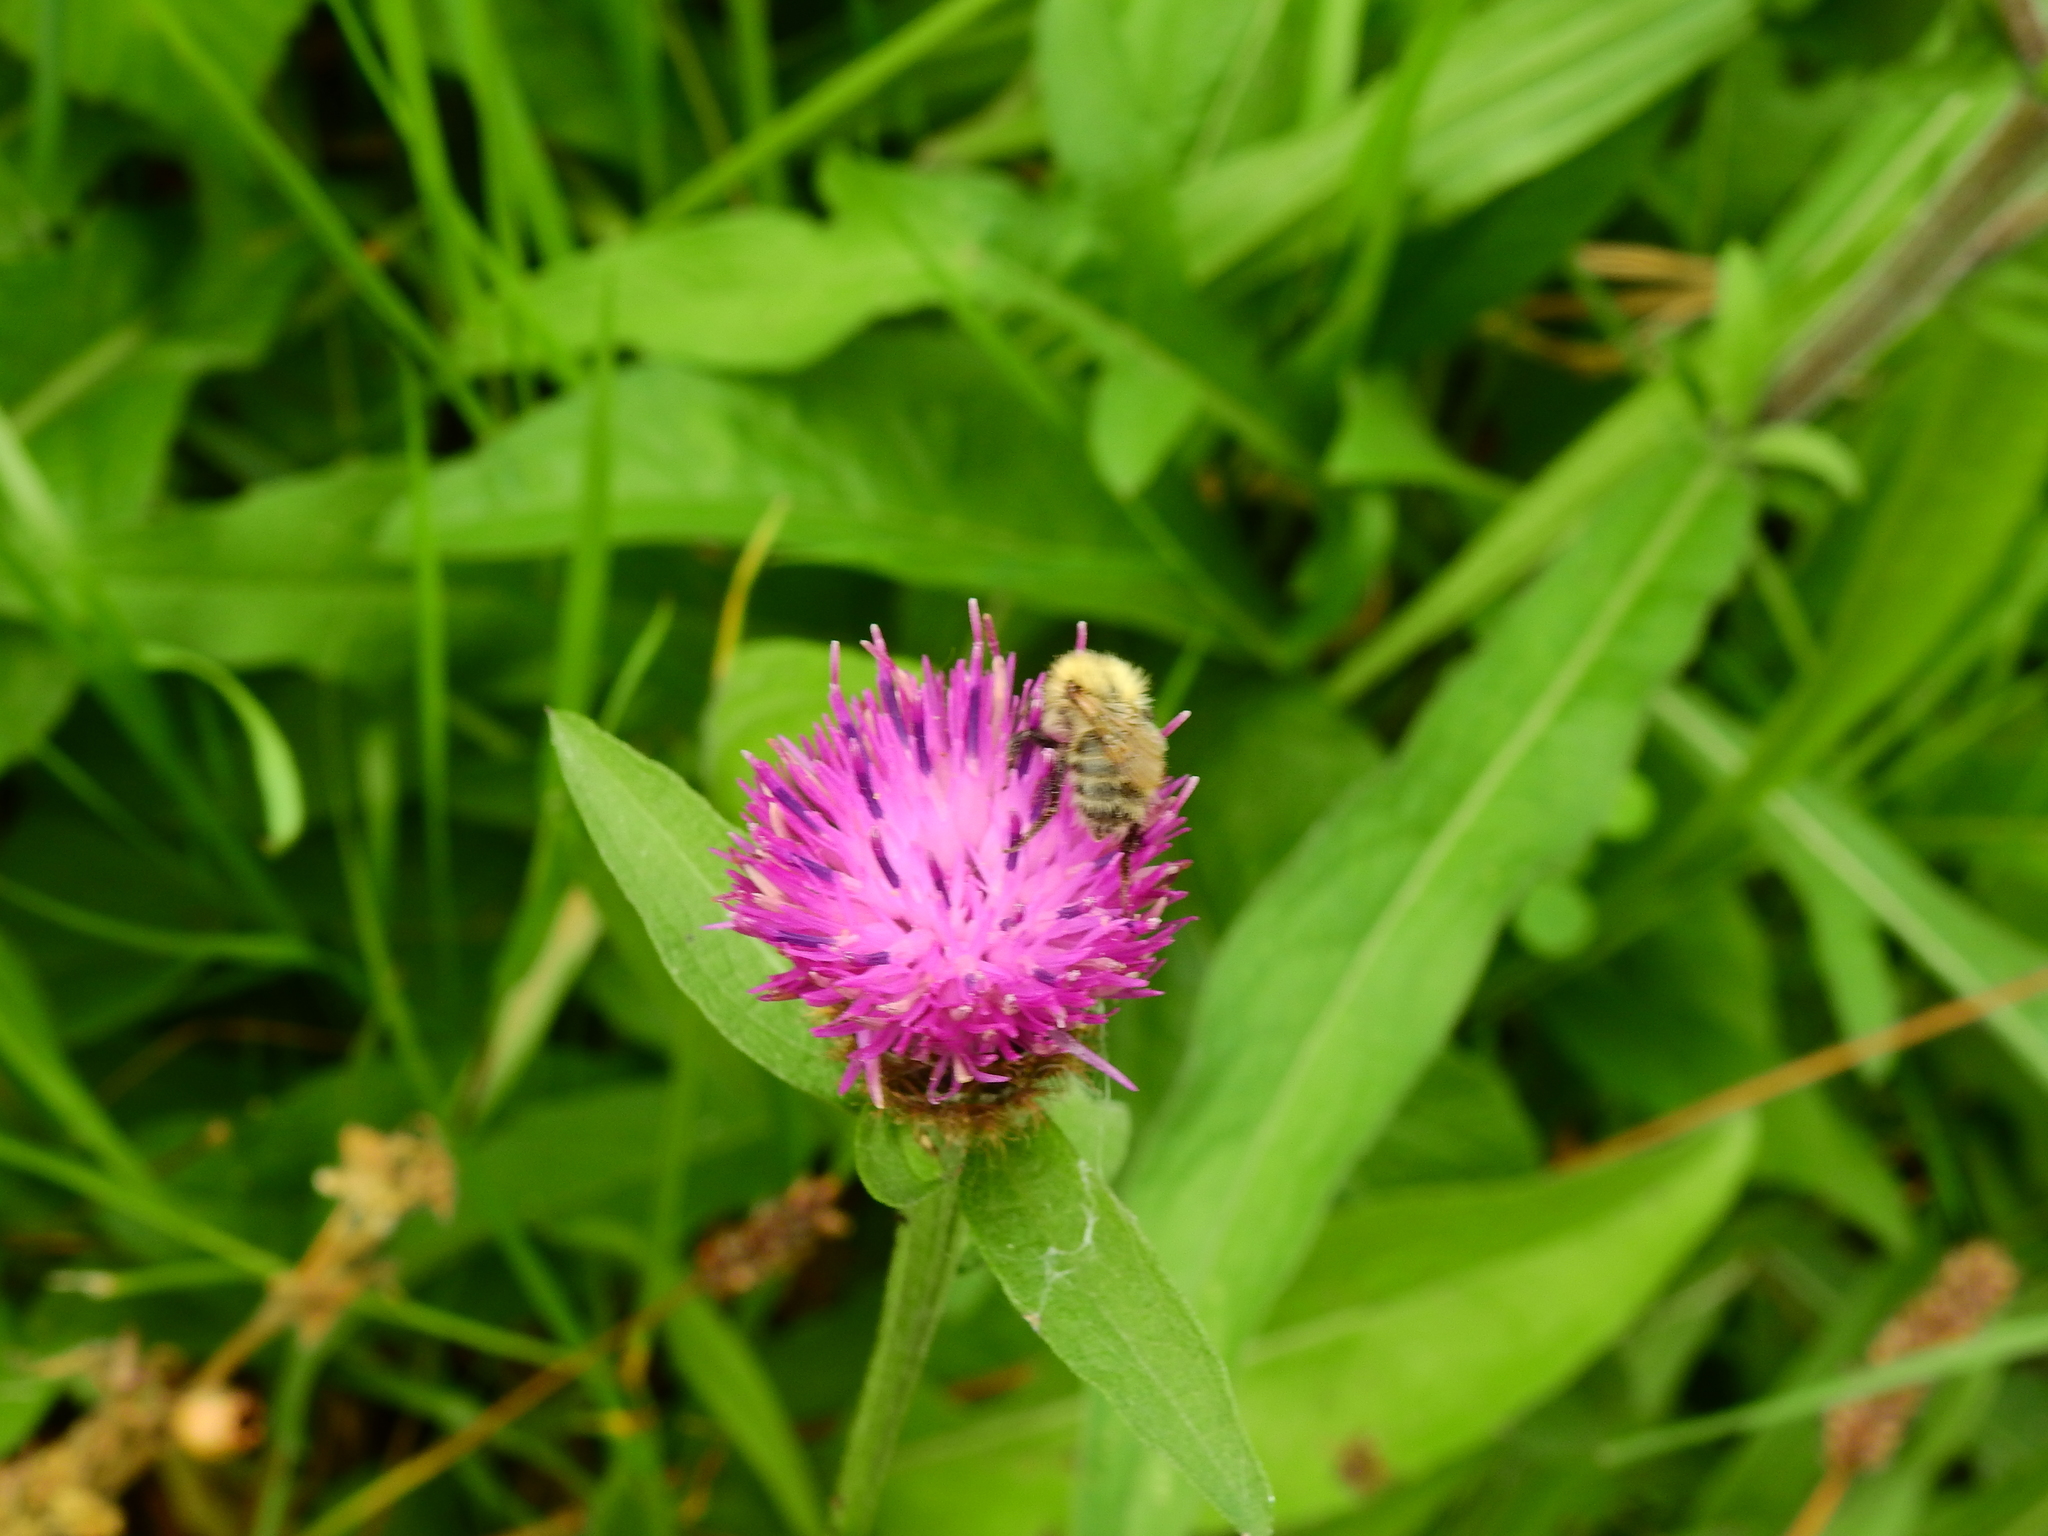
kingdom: Animalia
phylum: Arthropoda
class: Insecta
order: Hymenoptera
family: Apidae
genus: Bombus
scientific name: Bombus pascuorum
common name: Common carder bee
